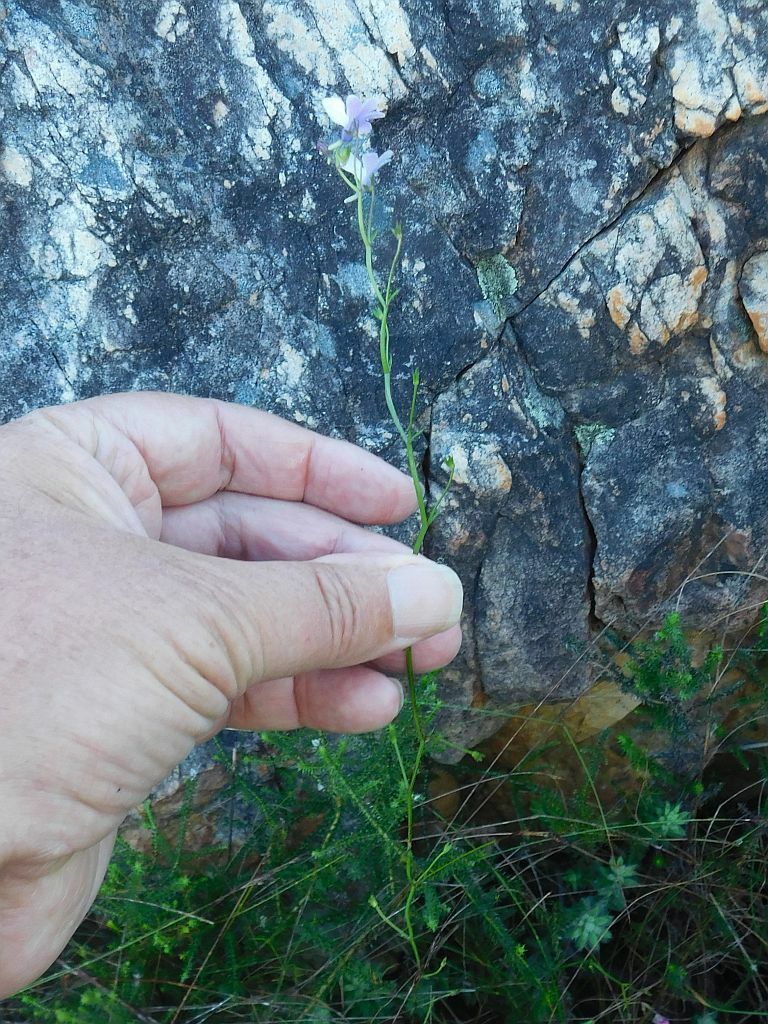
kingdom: Plantae
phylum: Tracheophyta
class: Magnoliopsida
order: Lamiales
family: Scrophulariaceae
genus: Nemesia
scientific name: Nemesia diffusa
